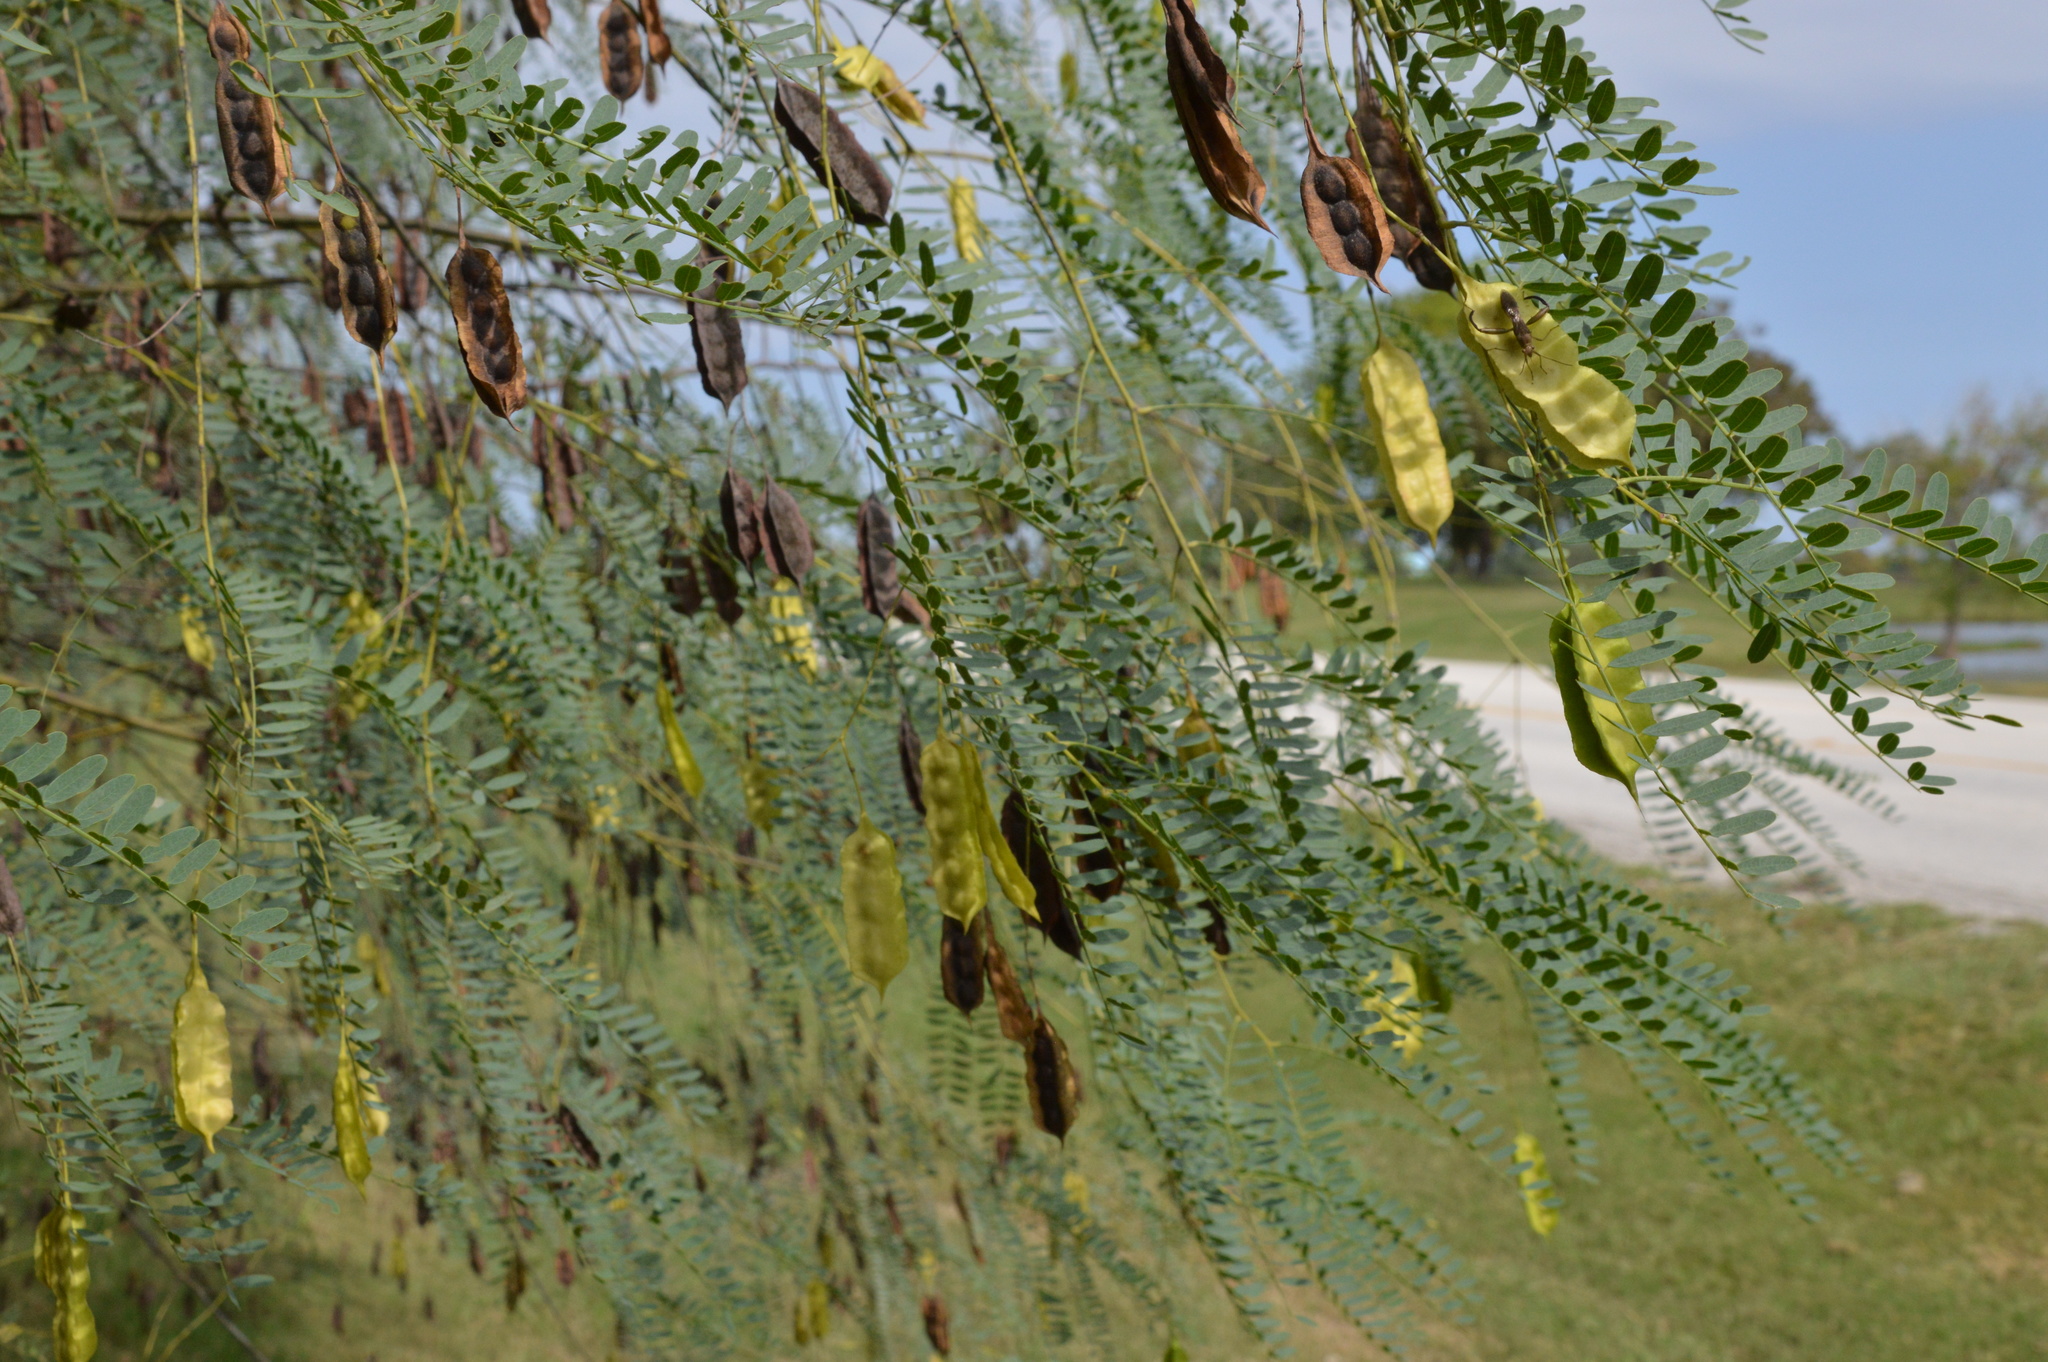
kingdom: Plantae
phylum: Tracheophyta
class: Magnoliopsida
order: Fabales
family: Fabaceae
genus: Sesbania
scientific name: Sesbania drummondii
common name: Poison-bean
